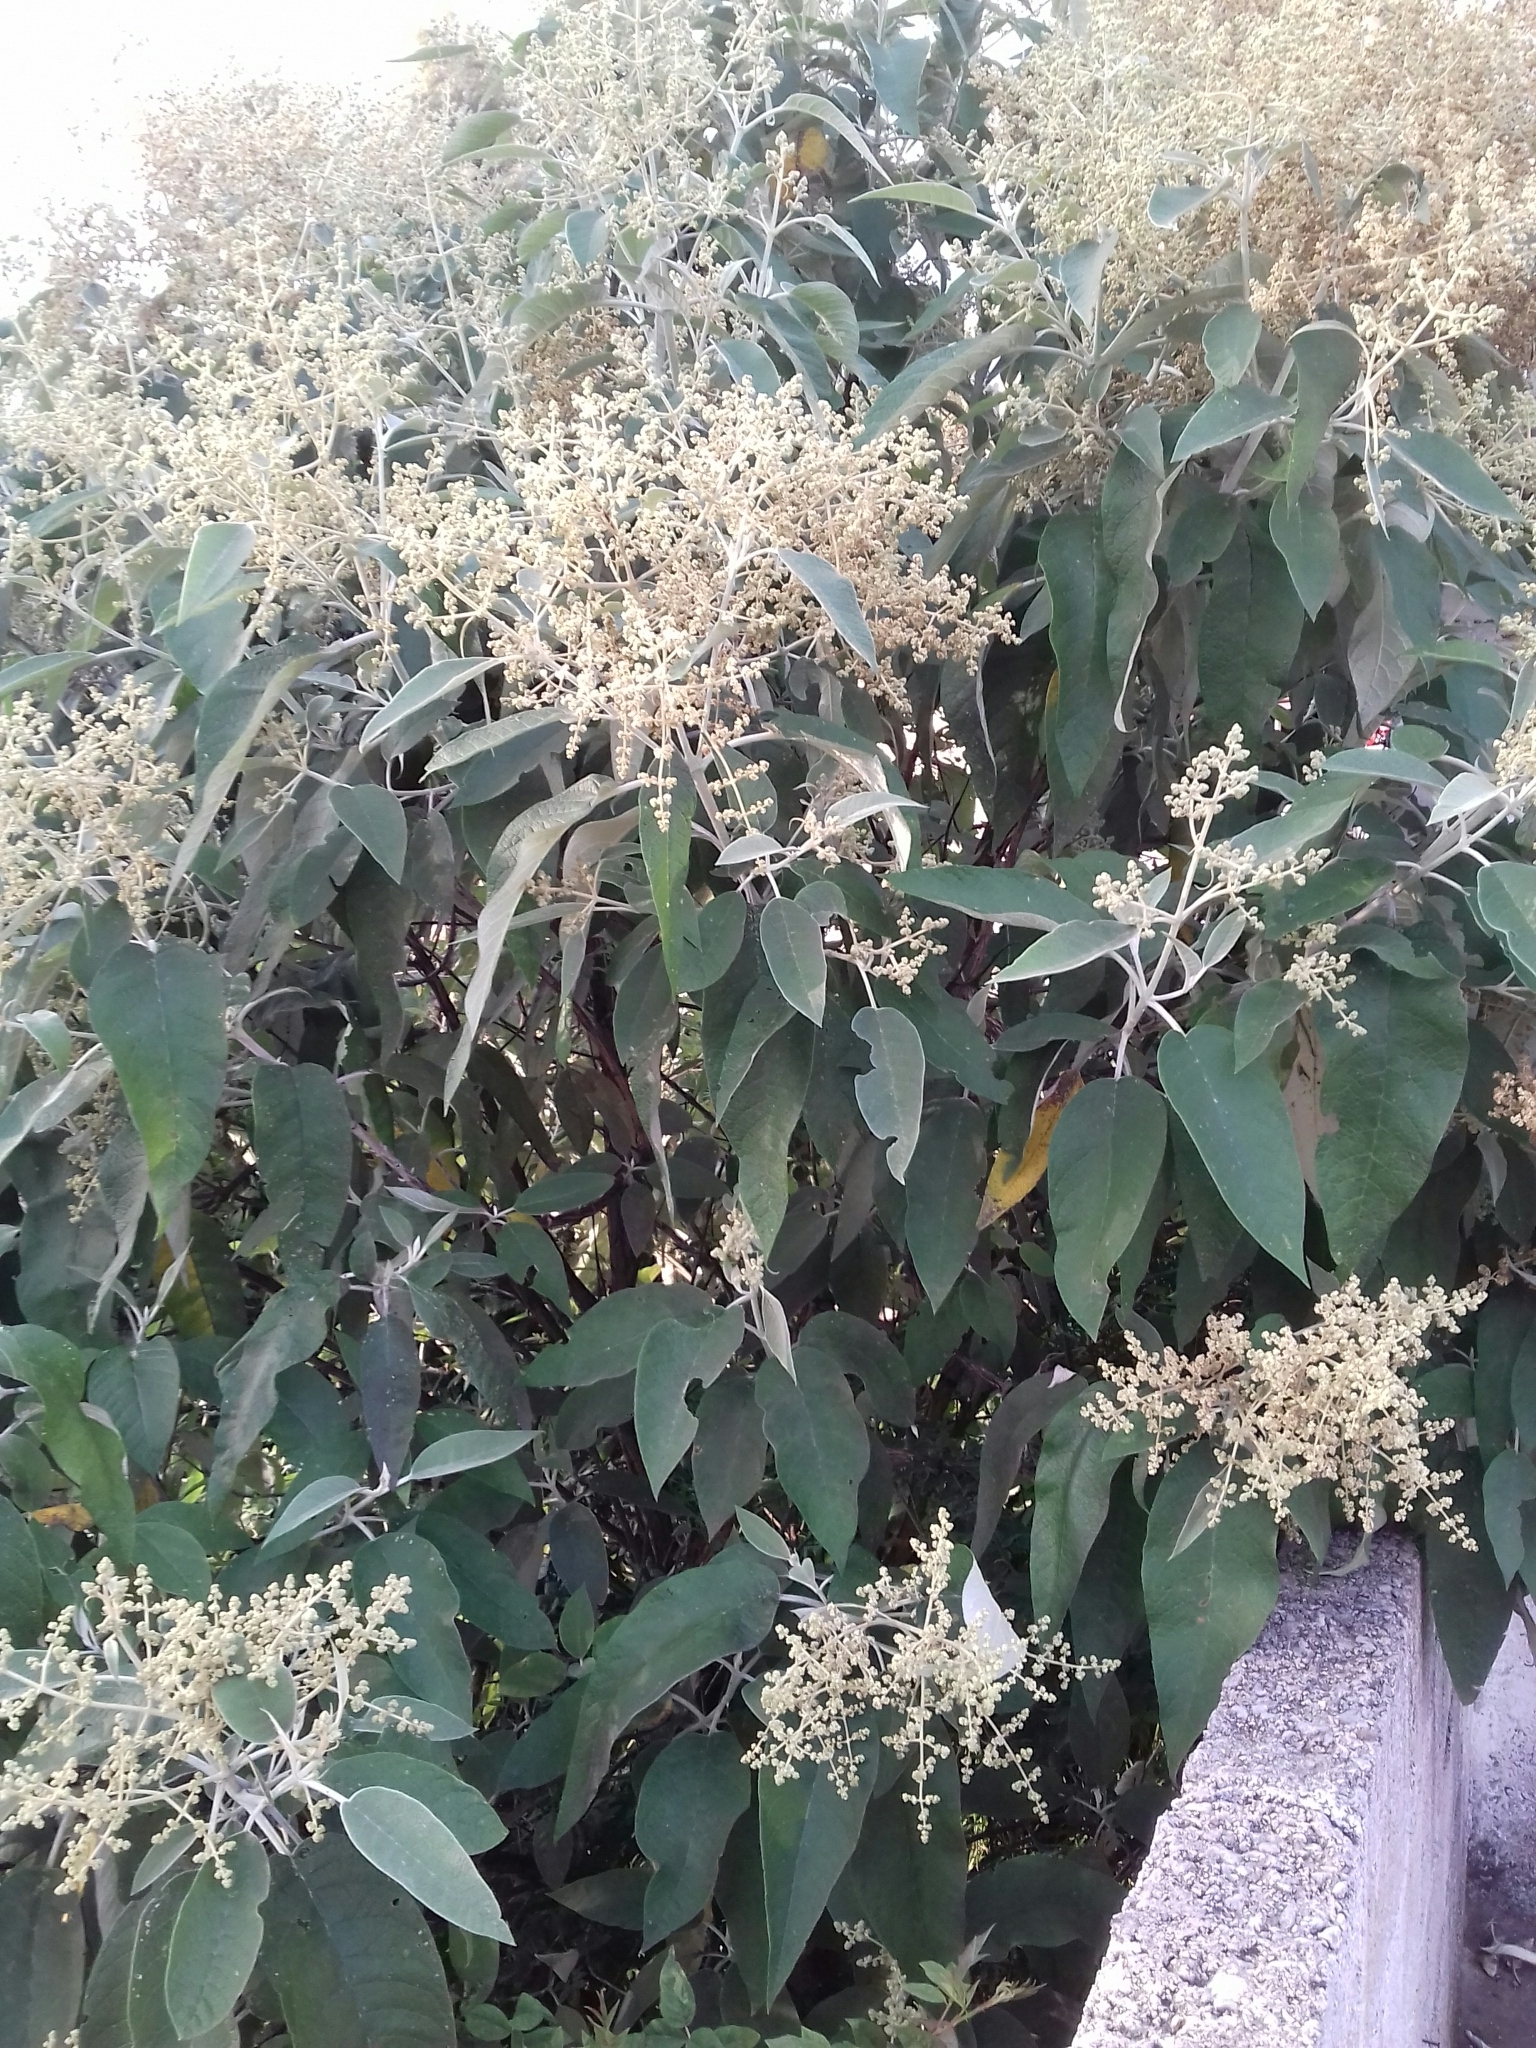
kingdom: Plantae
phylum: Tracheophyta
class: Magnoliopsida
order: Lamiales
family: Scrophulariaceae
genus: Buddleja
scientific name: Buddleja cordata
